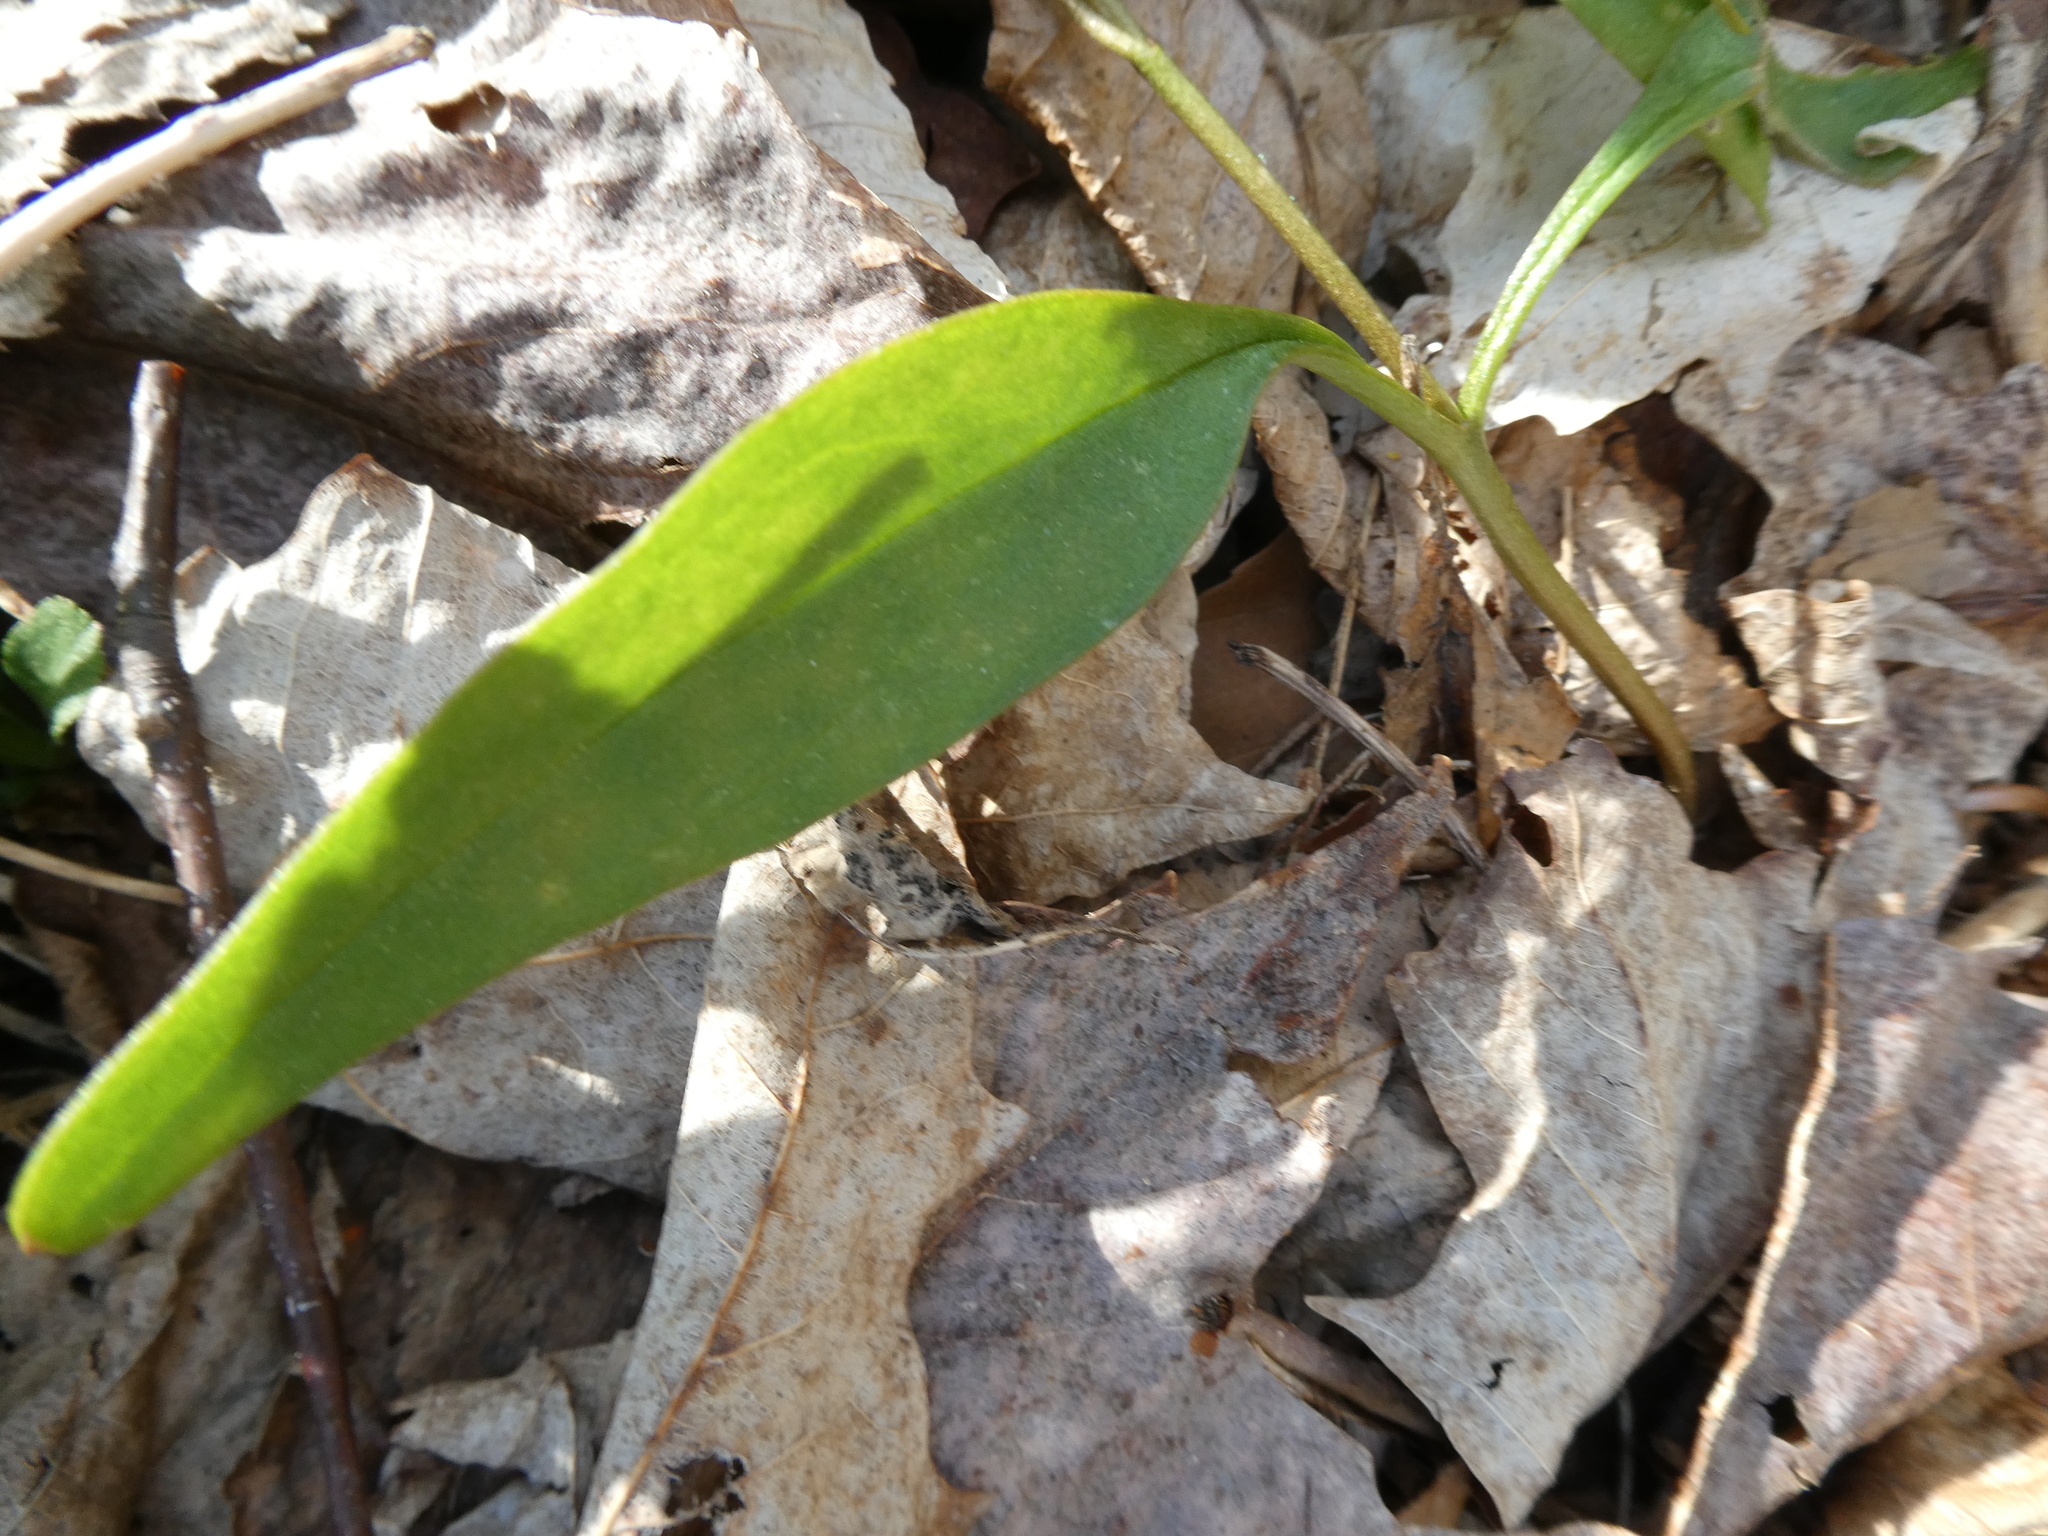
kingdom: Plantae
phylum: Tracheophyta
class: Magnoliopsida
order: Caryophyllales
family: Montiaceae
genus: Claytonia
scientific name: Claytonia caroliniana
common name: Carolina spring beauty
